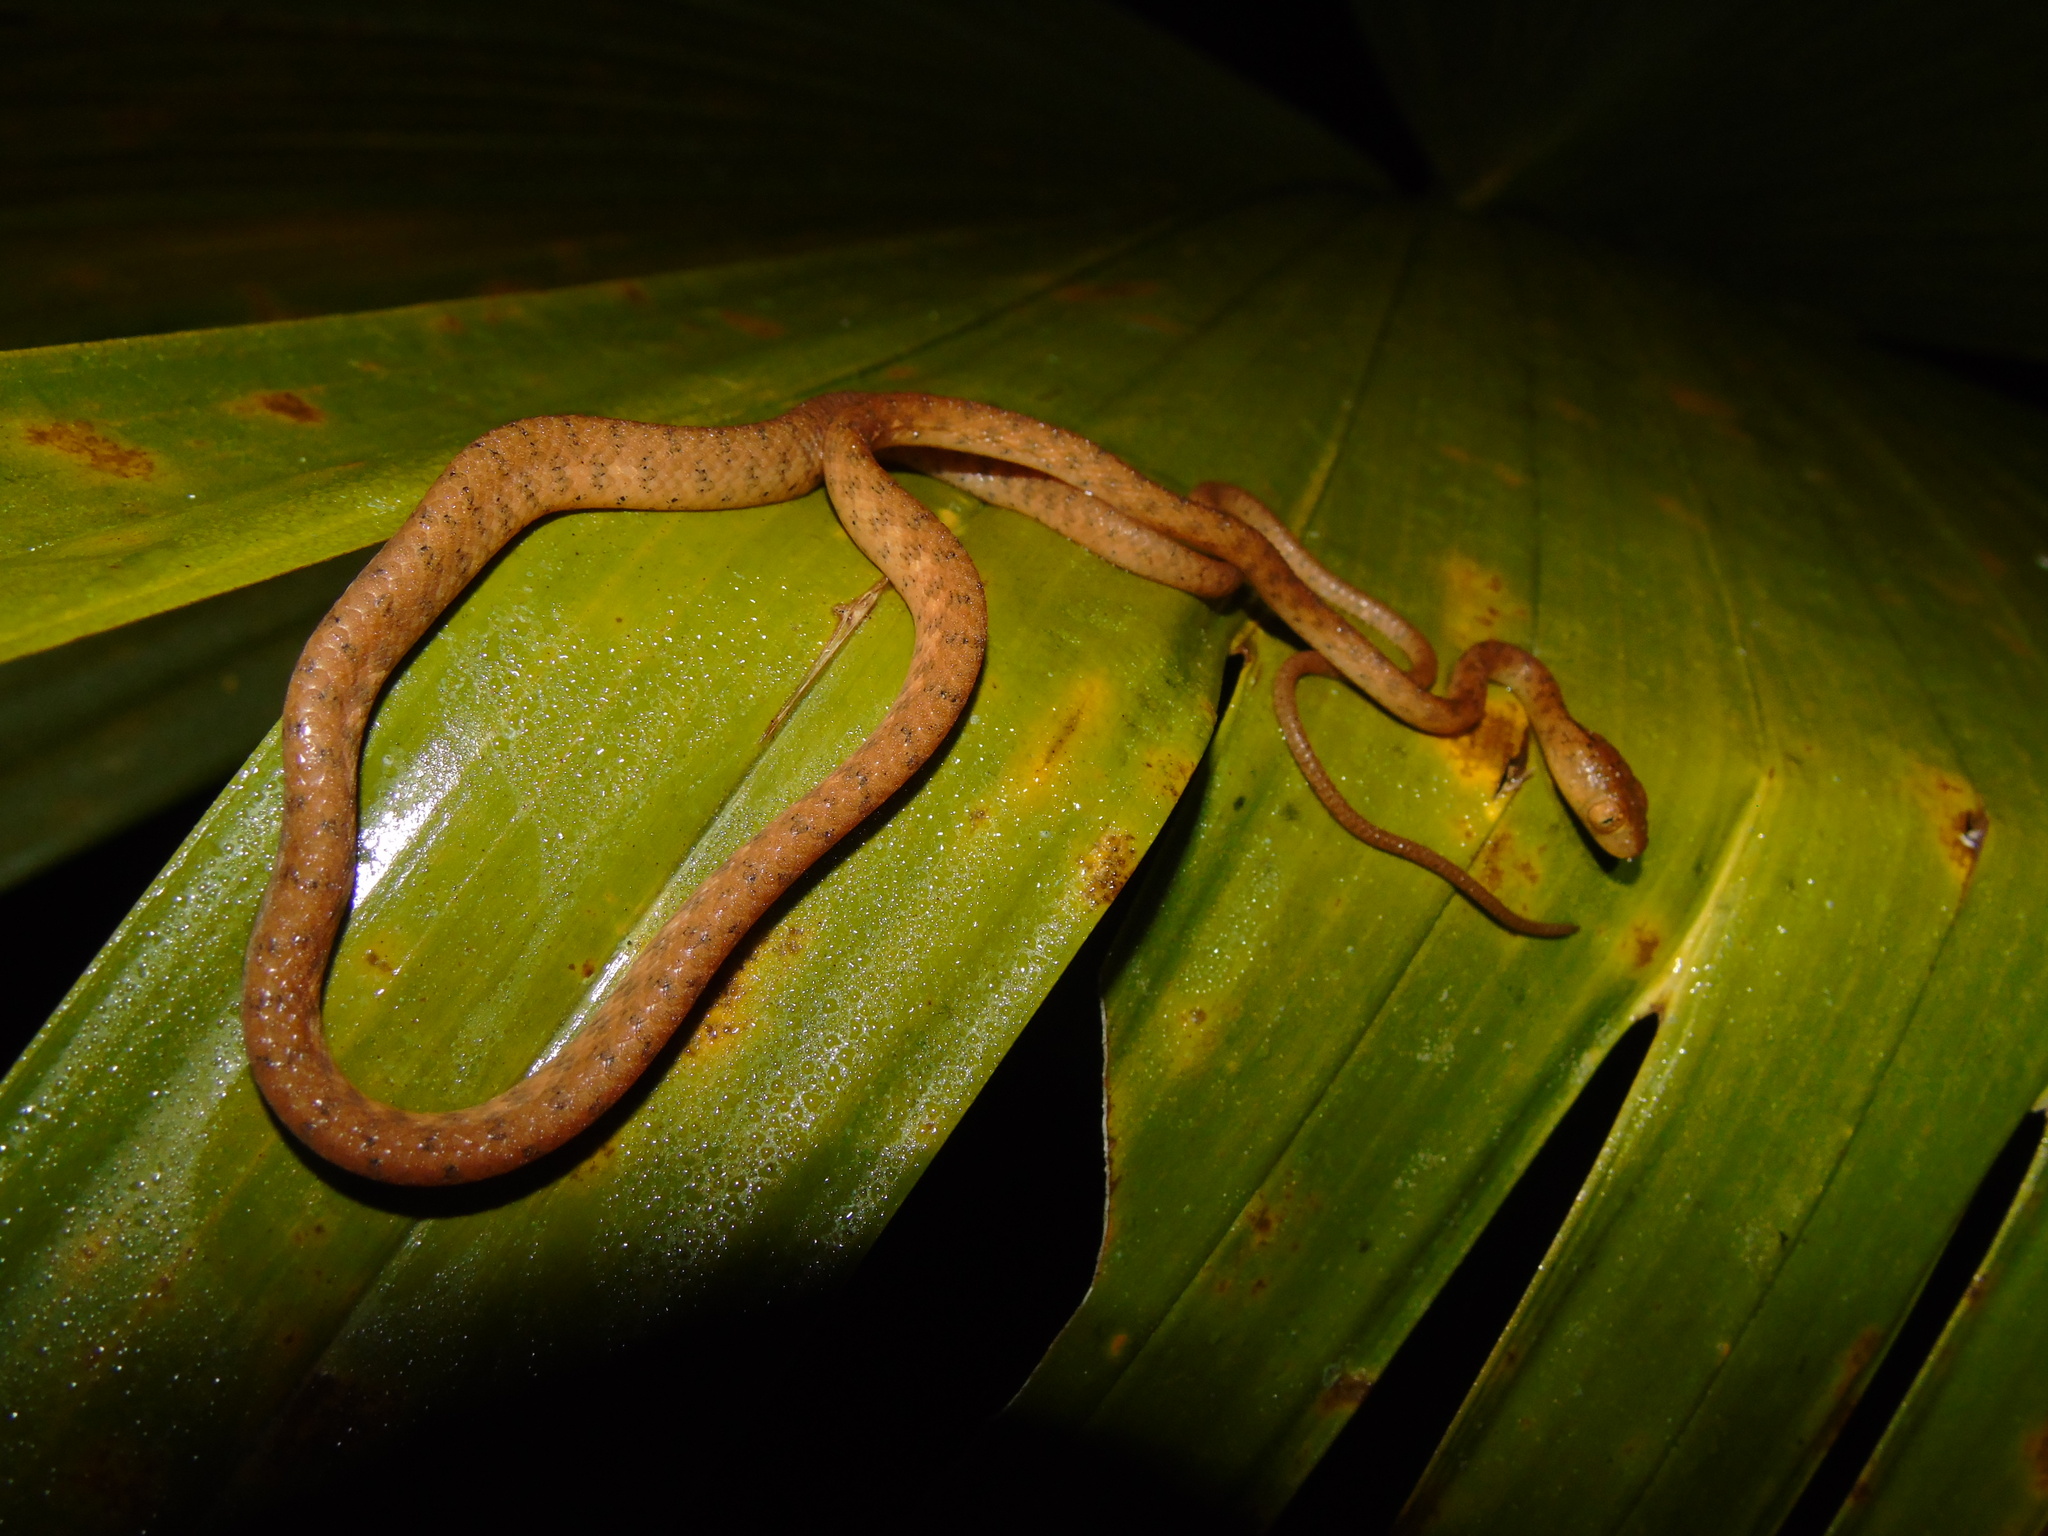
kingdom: Animalia
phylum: Chordata
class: Squamata
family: Colubridae
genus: Imantodes
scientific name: Imantodes inornatus
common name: Western tree snake
